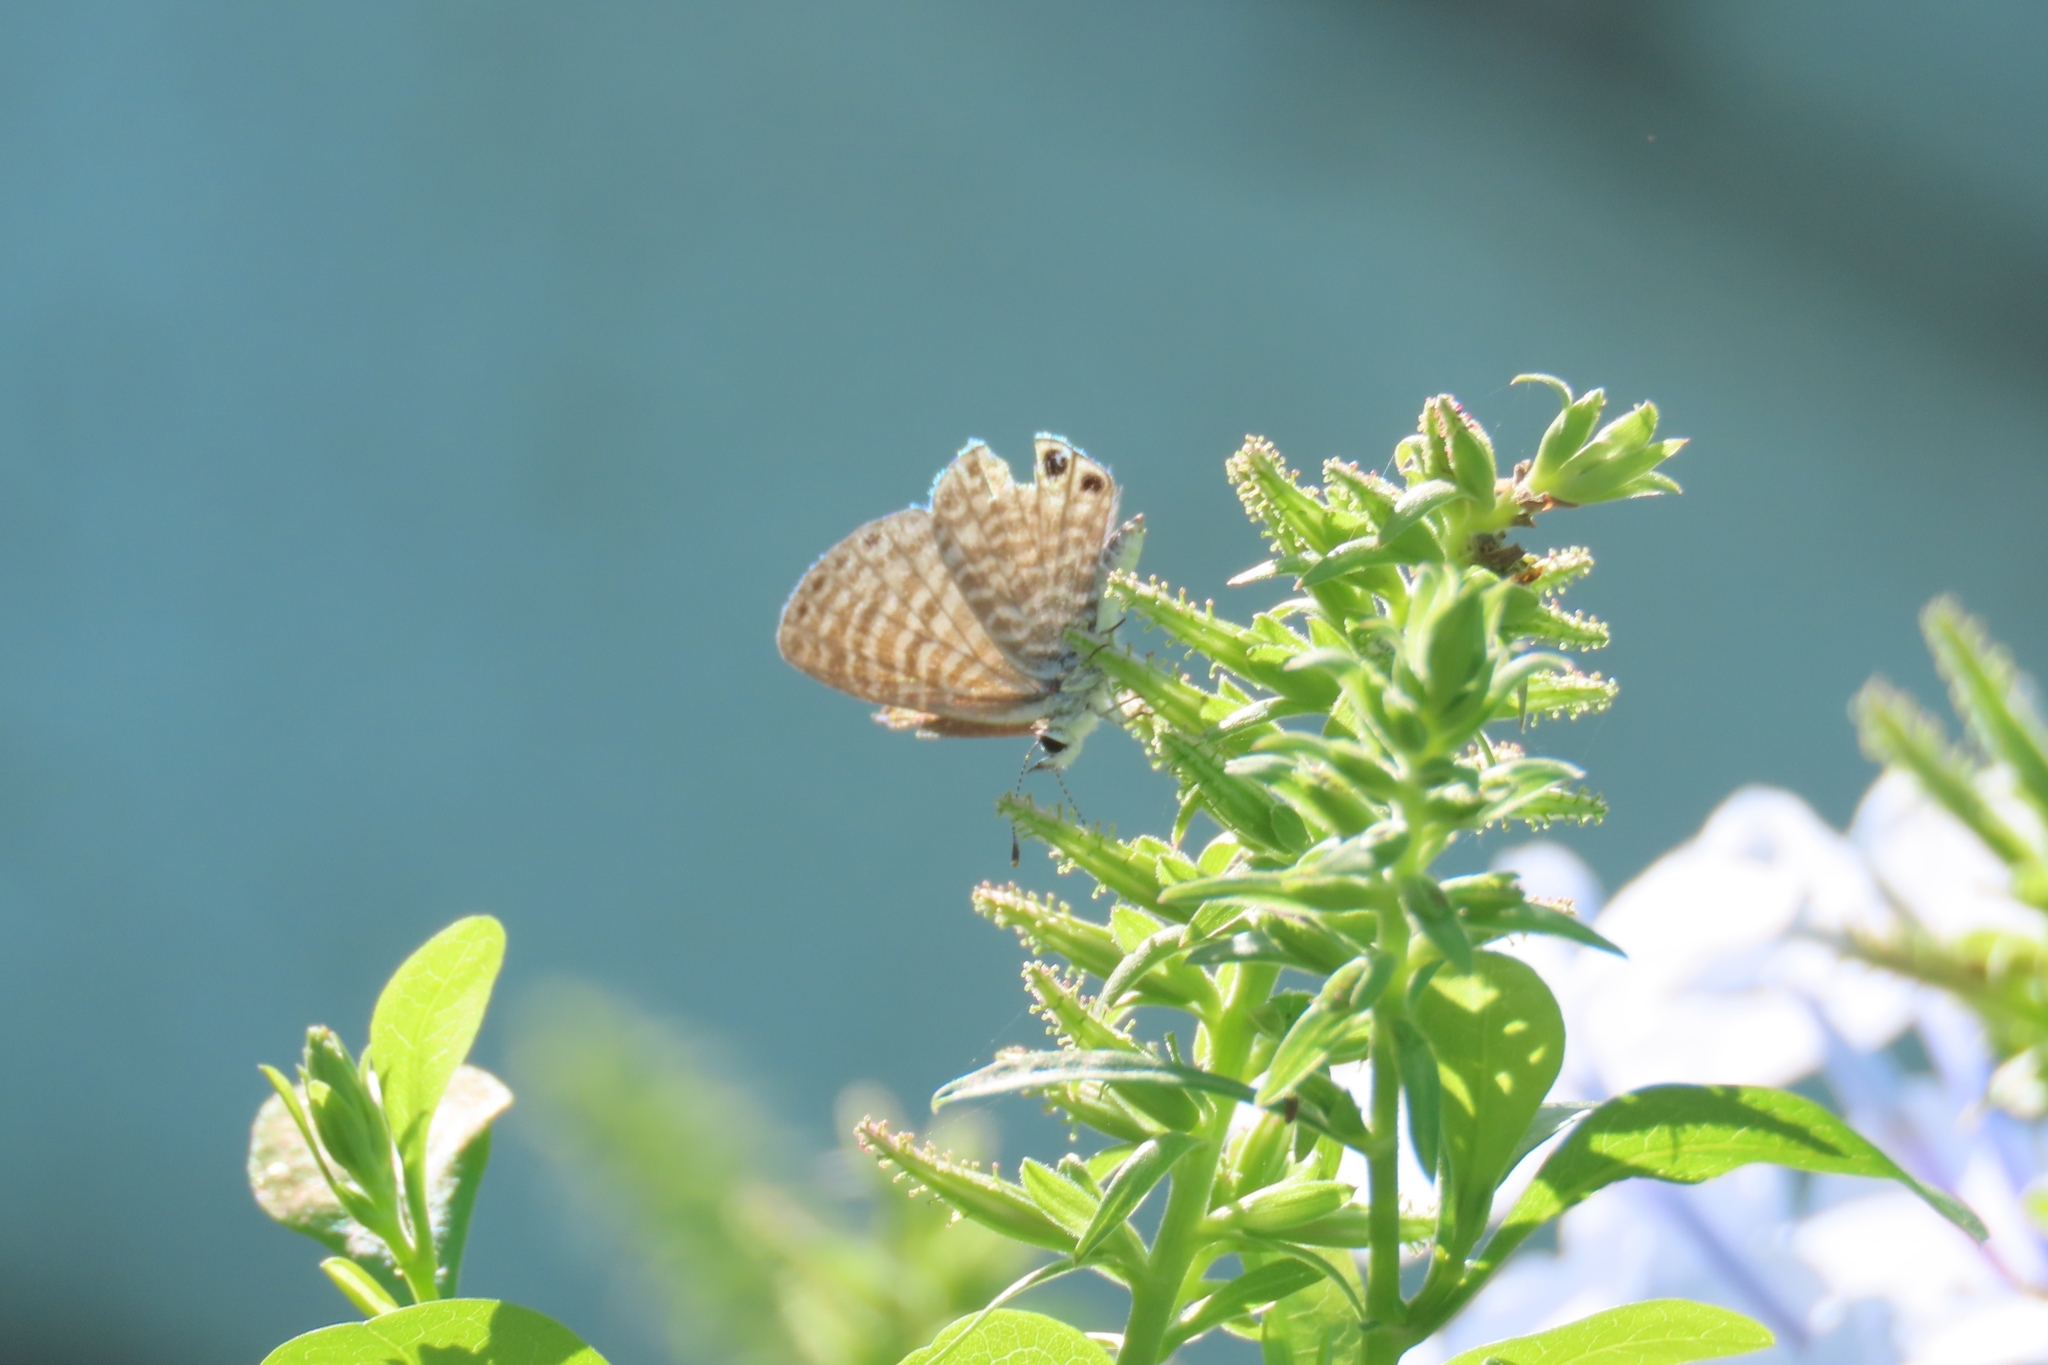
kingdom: Animalia
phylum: Arthropoda
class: Insecta
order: Lepidoptera
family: Lycaenidae
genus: Leptotes
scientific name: Leptotes marina
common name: Marine blue
